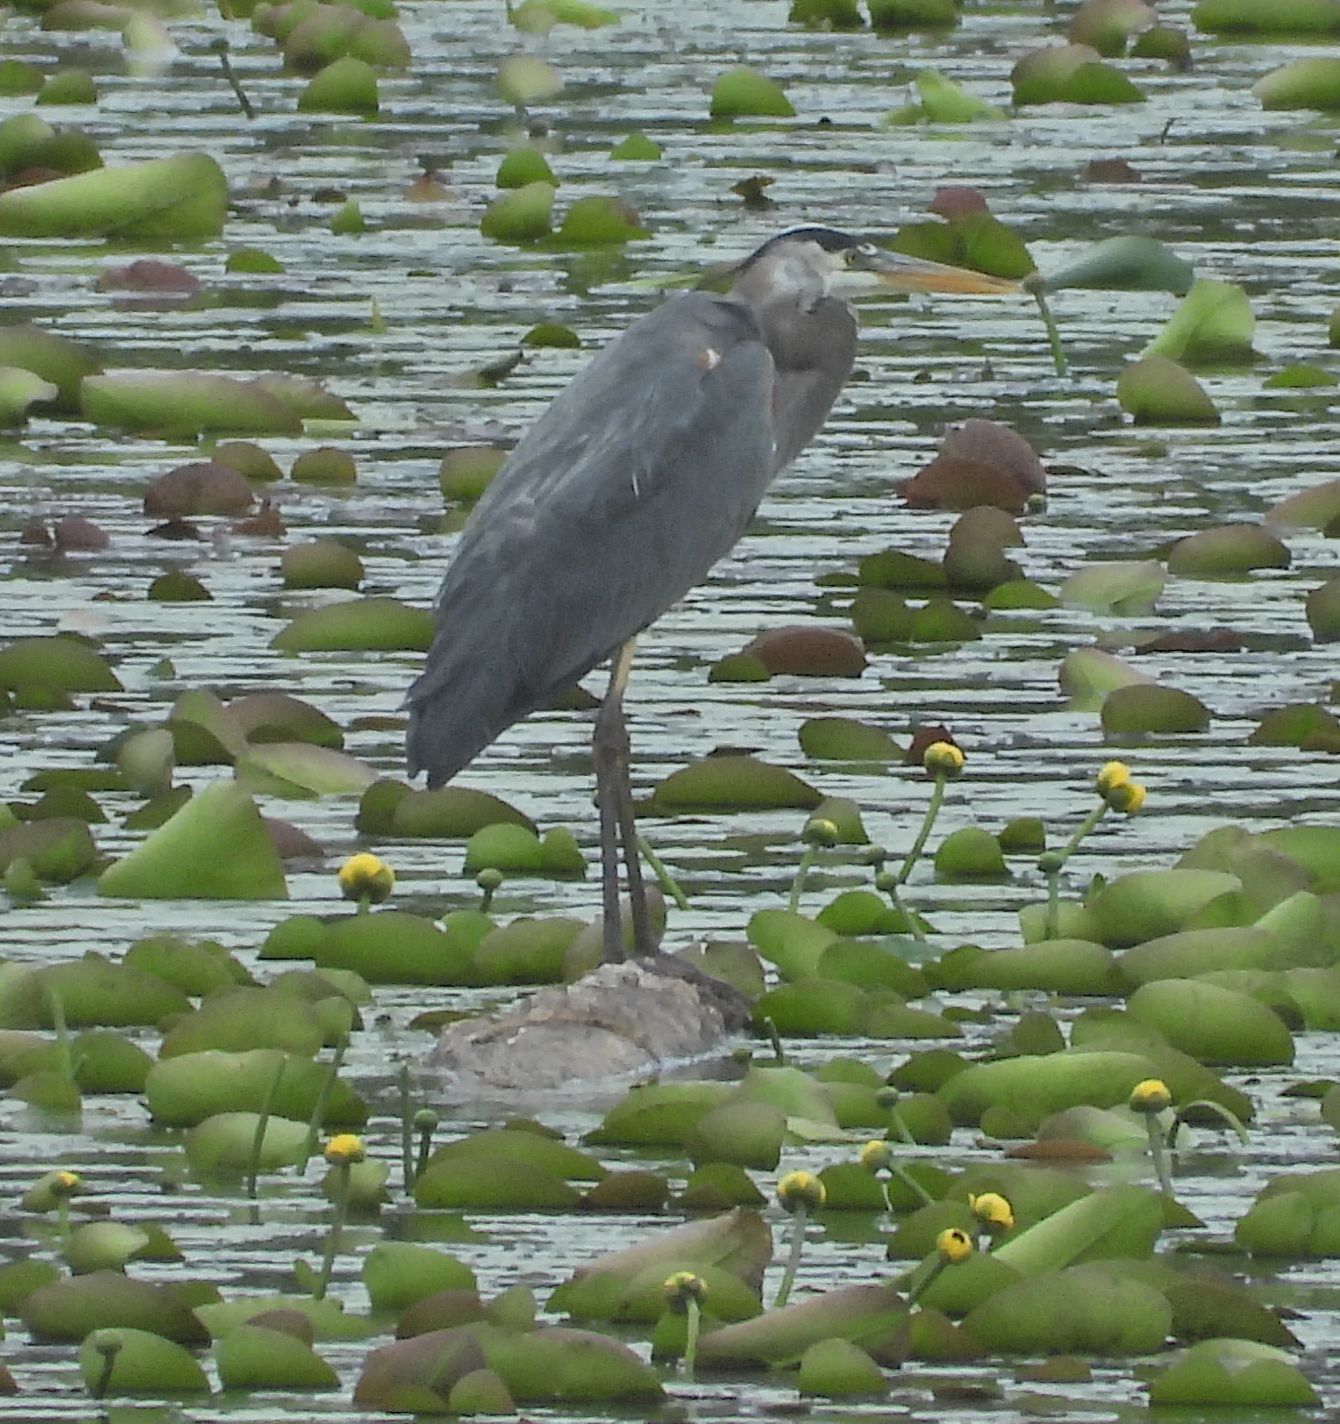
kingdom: Animalia
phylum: Chordata
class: Aves
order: Pelecaniformes
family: Ardeidae
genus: Ardea
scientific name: Ardea herodias
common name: Great blue heron
